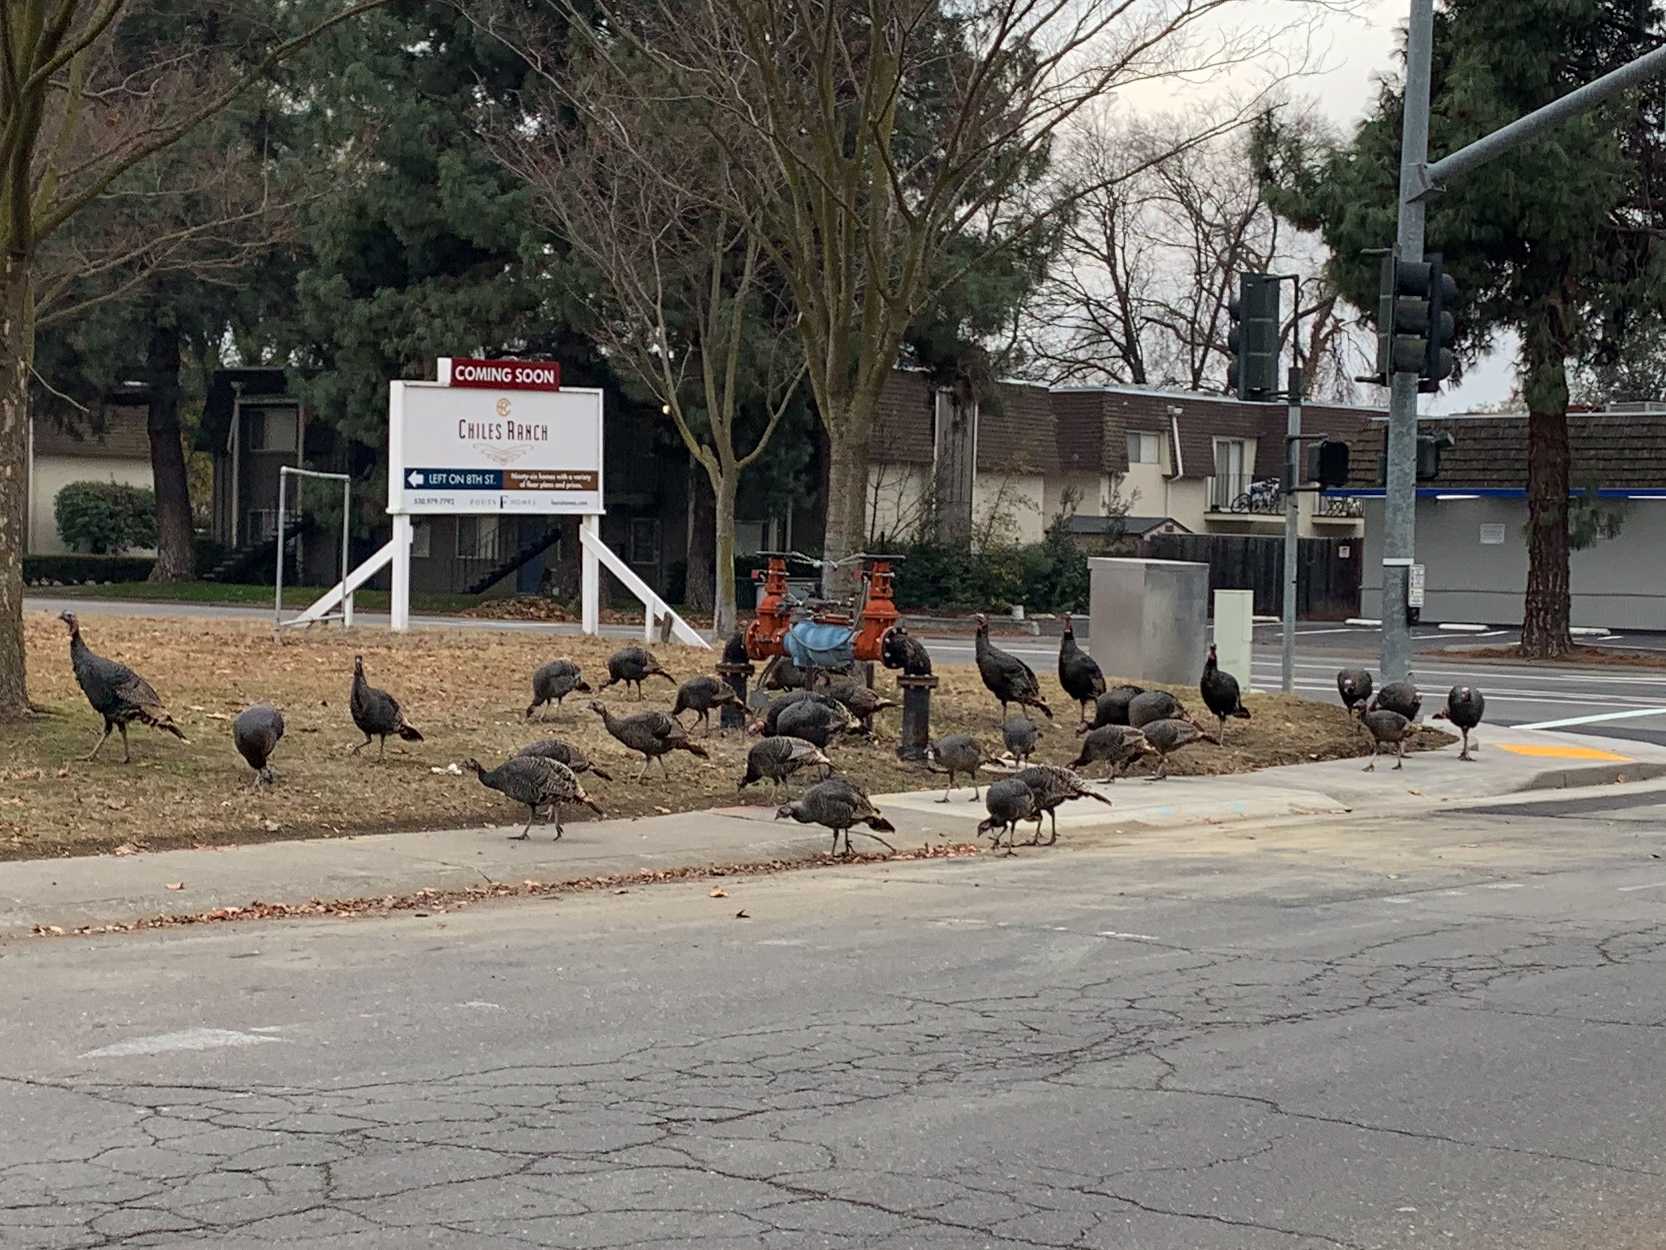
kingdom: Animalia
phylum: Chordata
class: Aves
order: Galliformes
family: Phasianidae
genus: Meleagris
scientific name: Meleagris gallopavo
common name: Wild turkey
